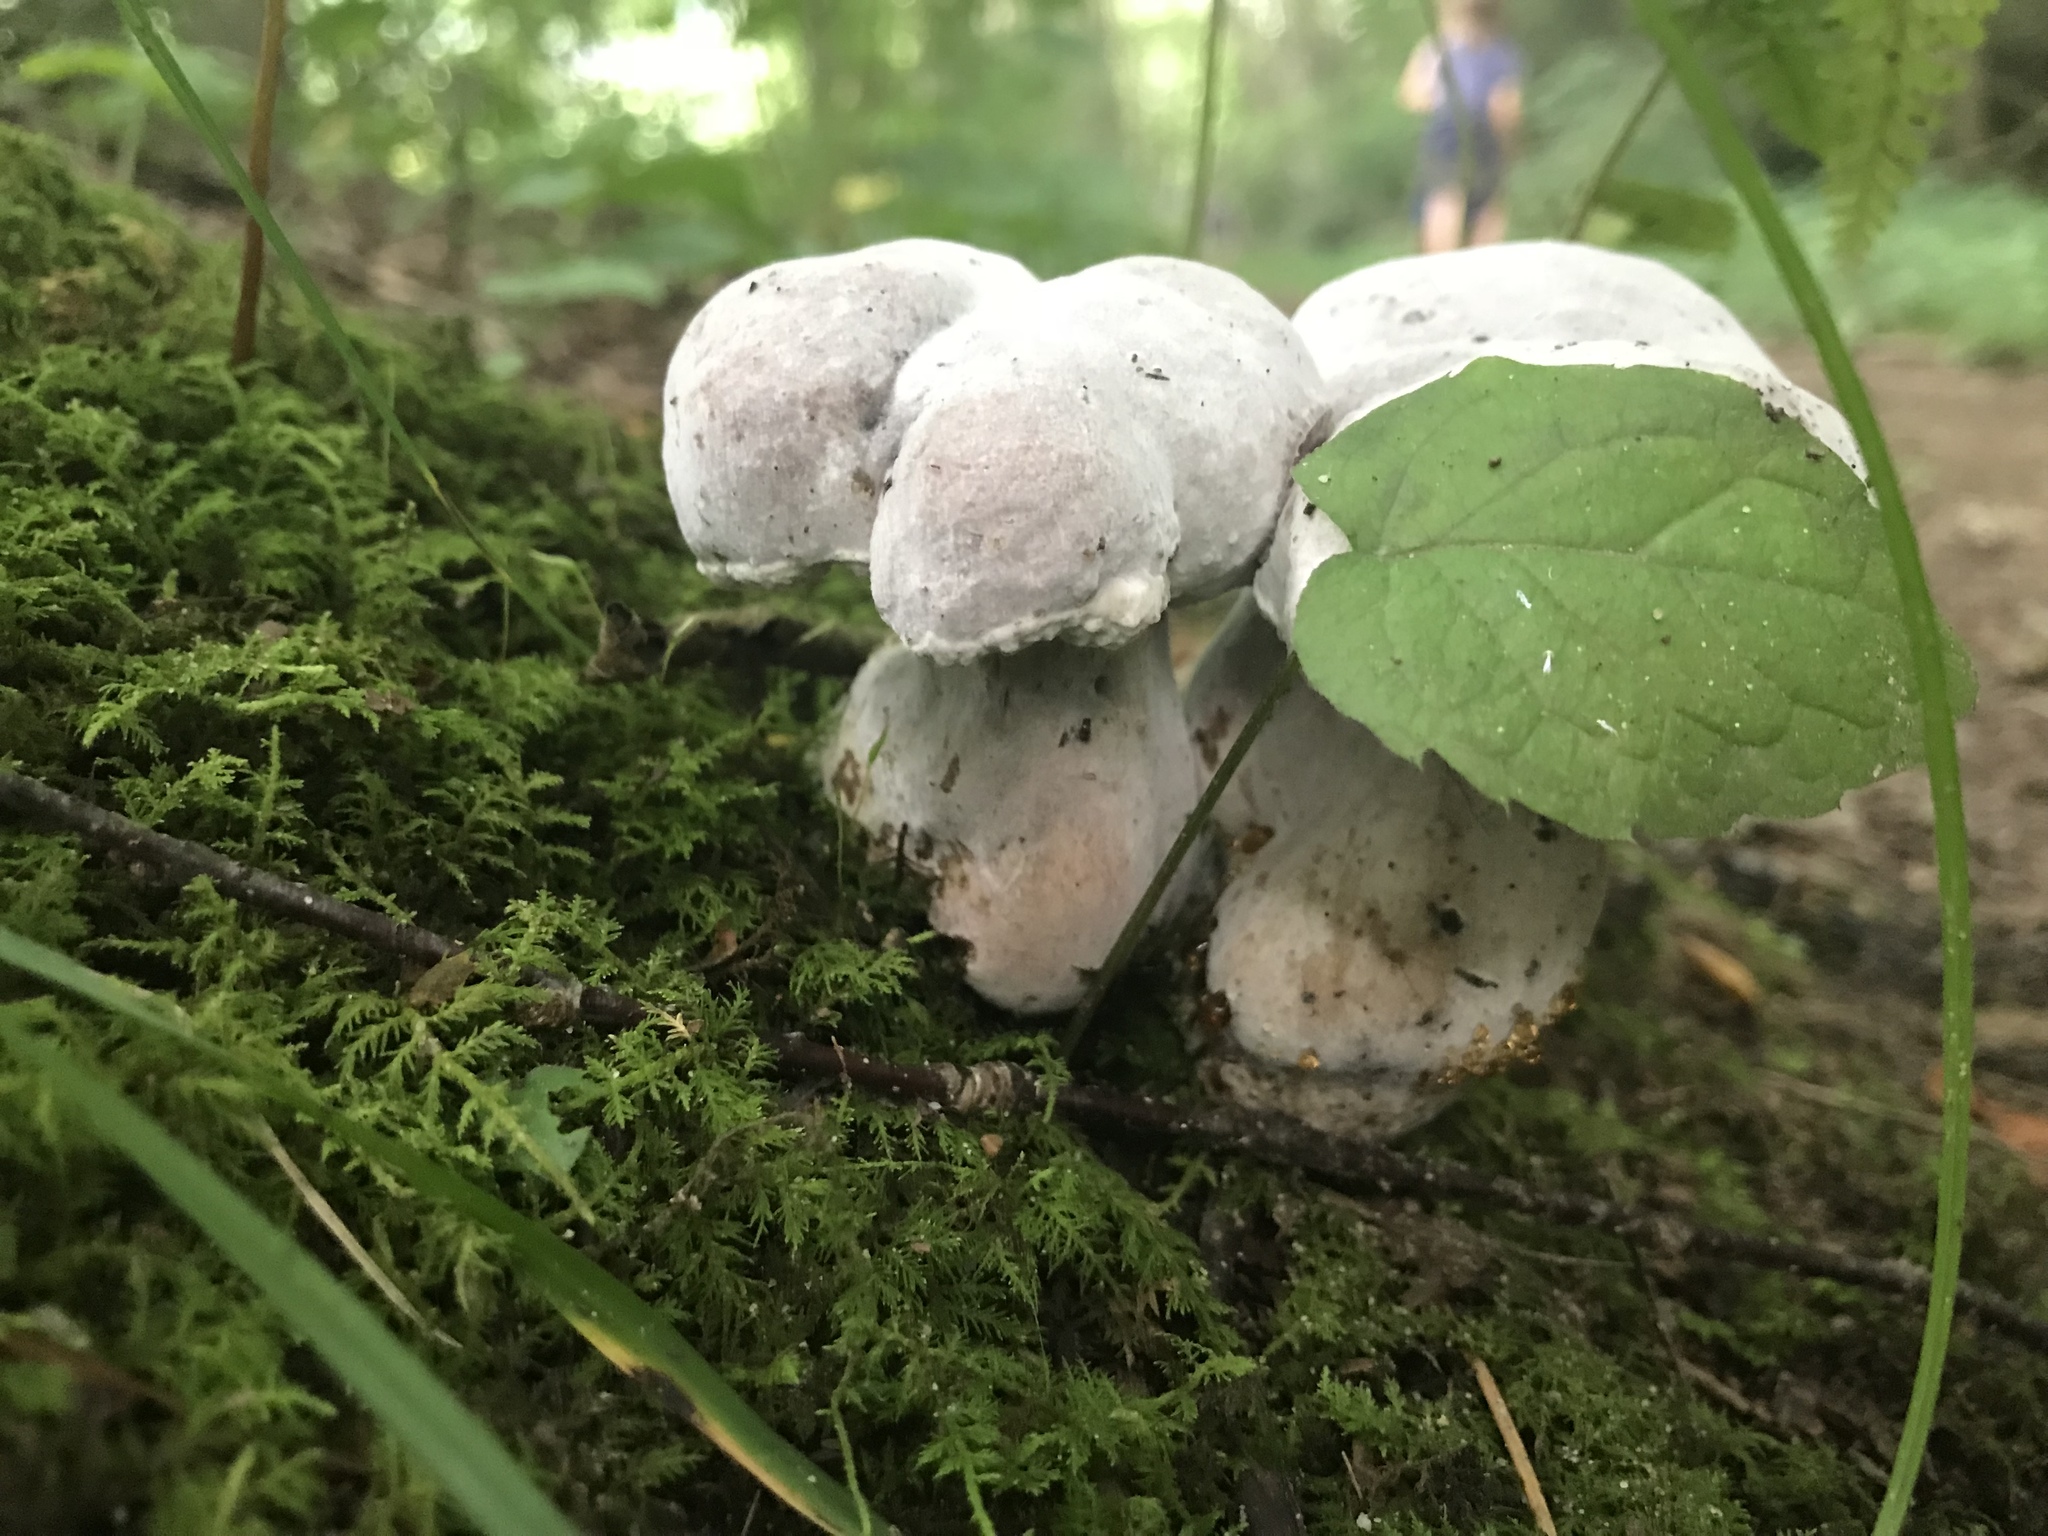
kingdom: Fungi
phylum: Ascomycota
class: Sordariomycetes
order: Hypocreales
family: Hypocreaceae
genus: Hypomyces
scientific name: Hypomyces chrysospermus
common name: Bolete mould
